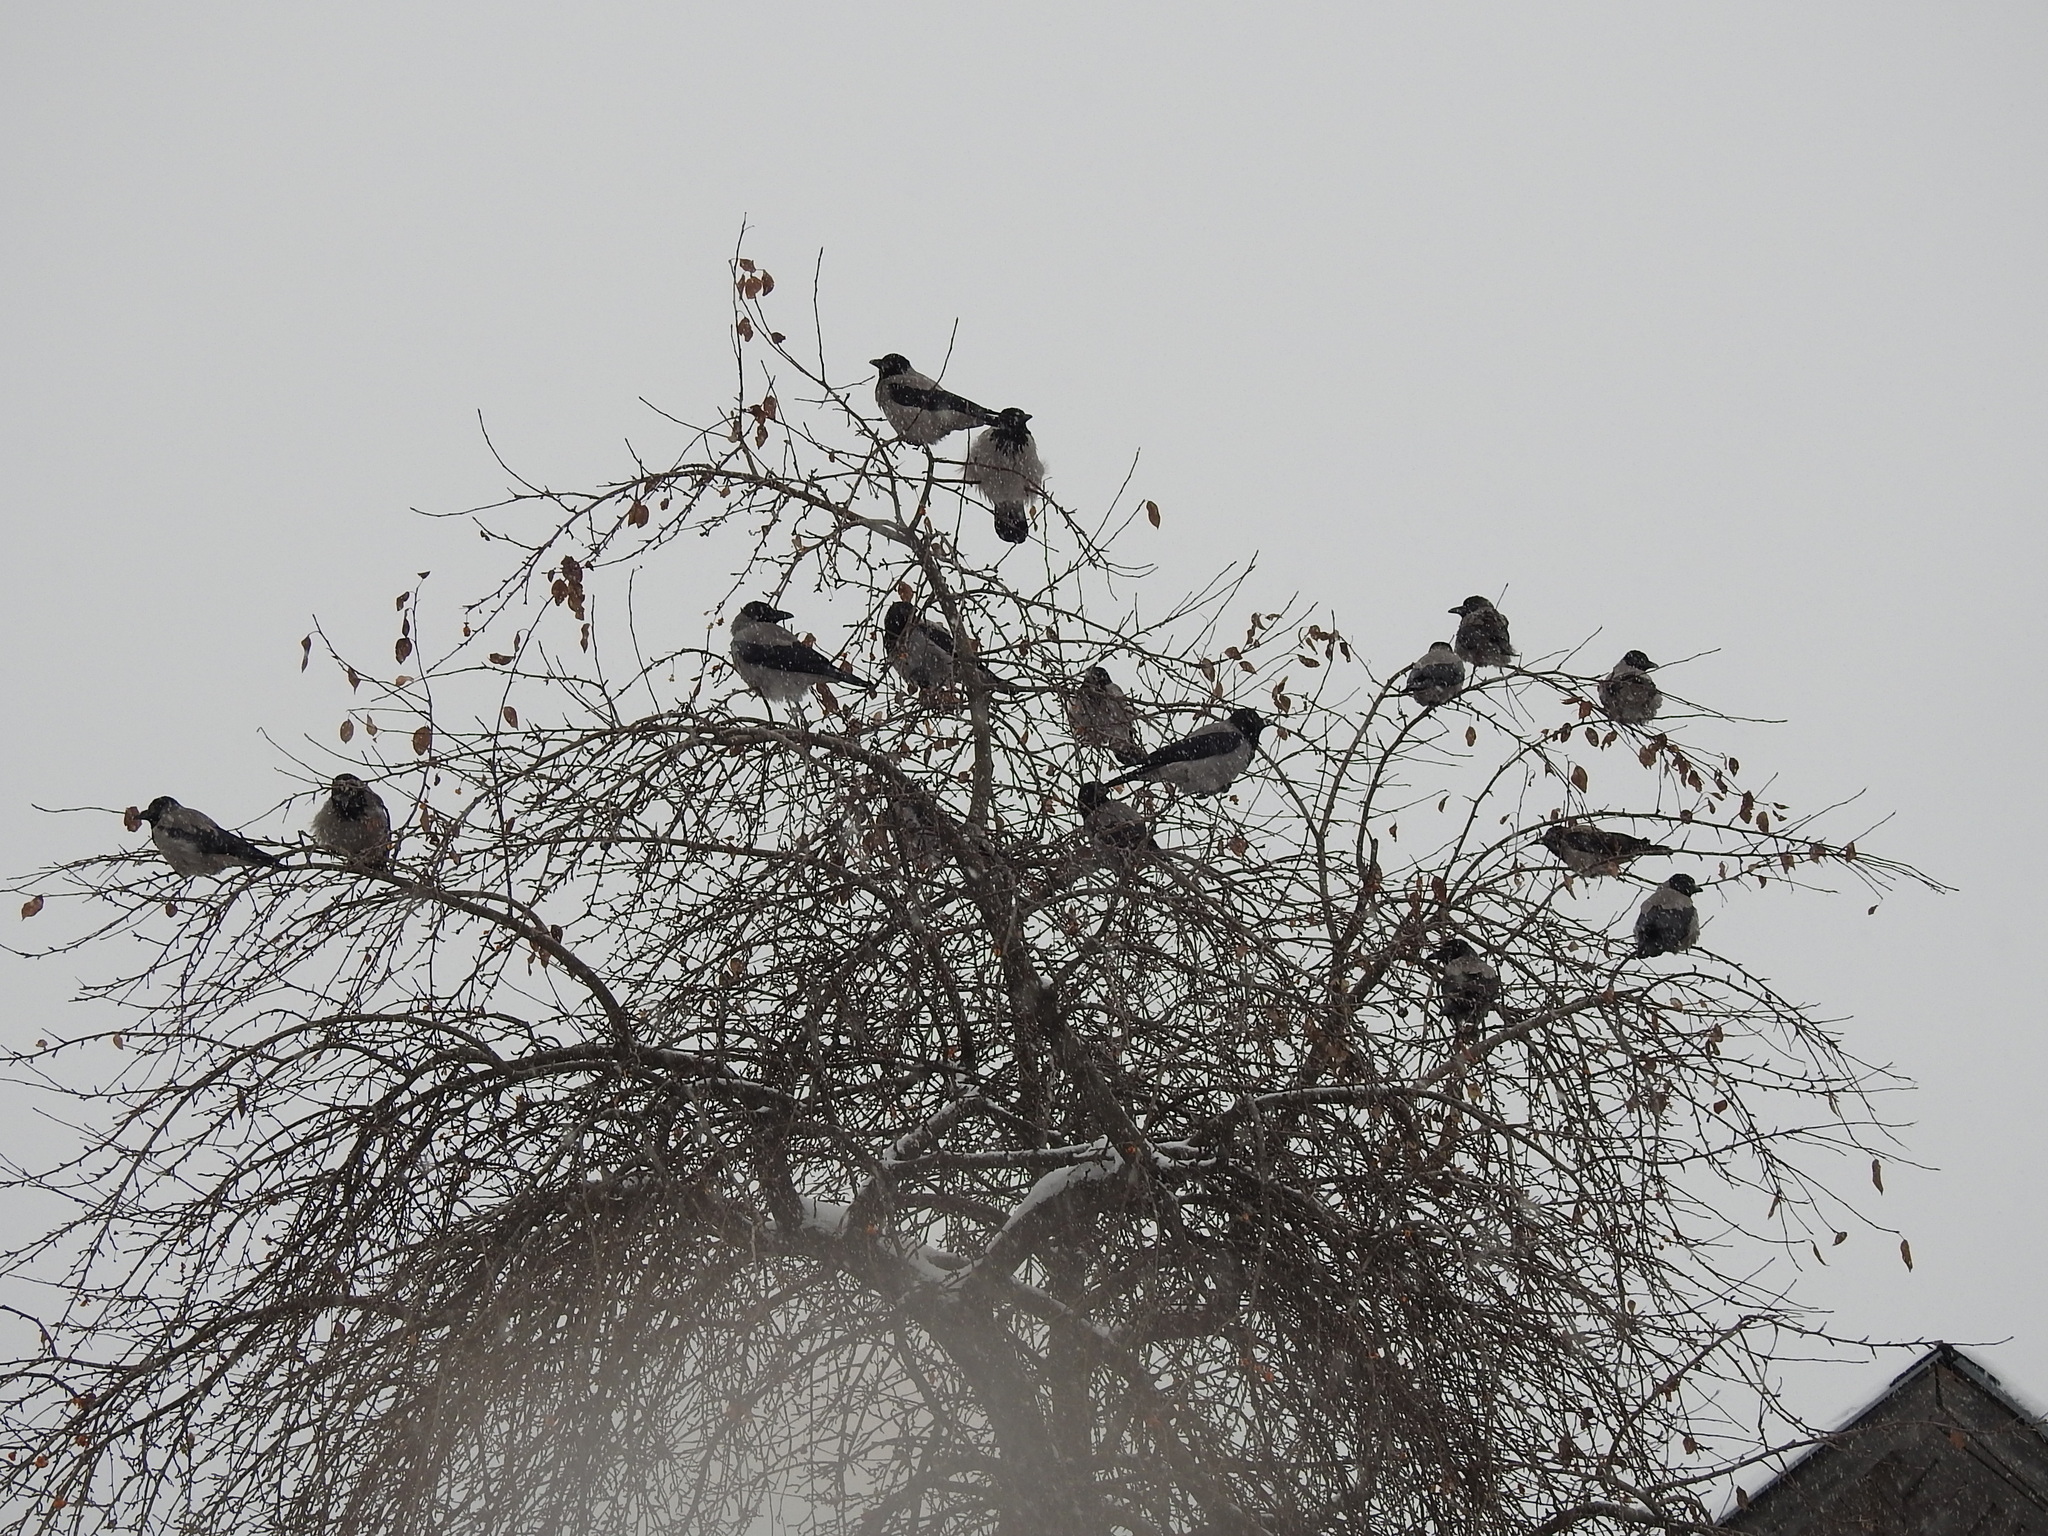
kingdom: Animalia
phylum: Chordata
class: Aves
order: Passeriformes
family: Corvidae
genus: Corvus
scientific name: Corvus cornix
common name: Hooded crow
